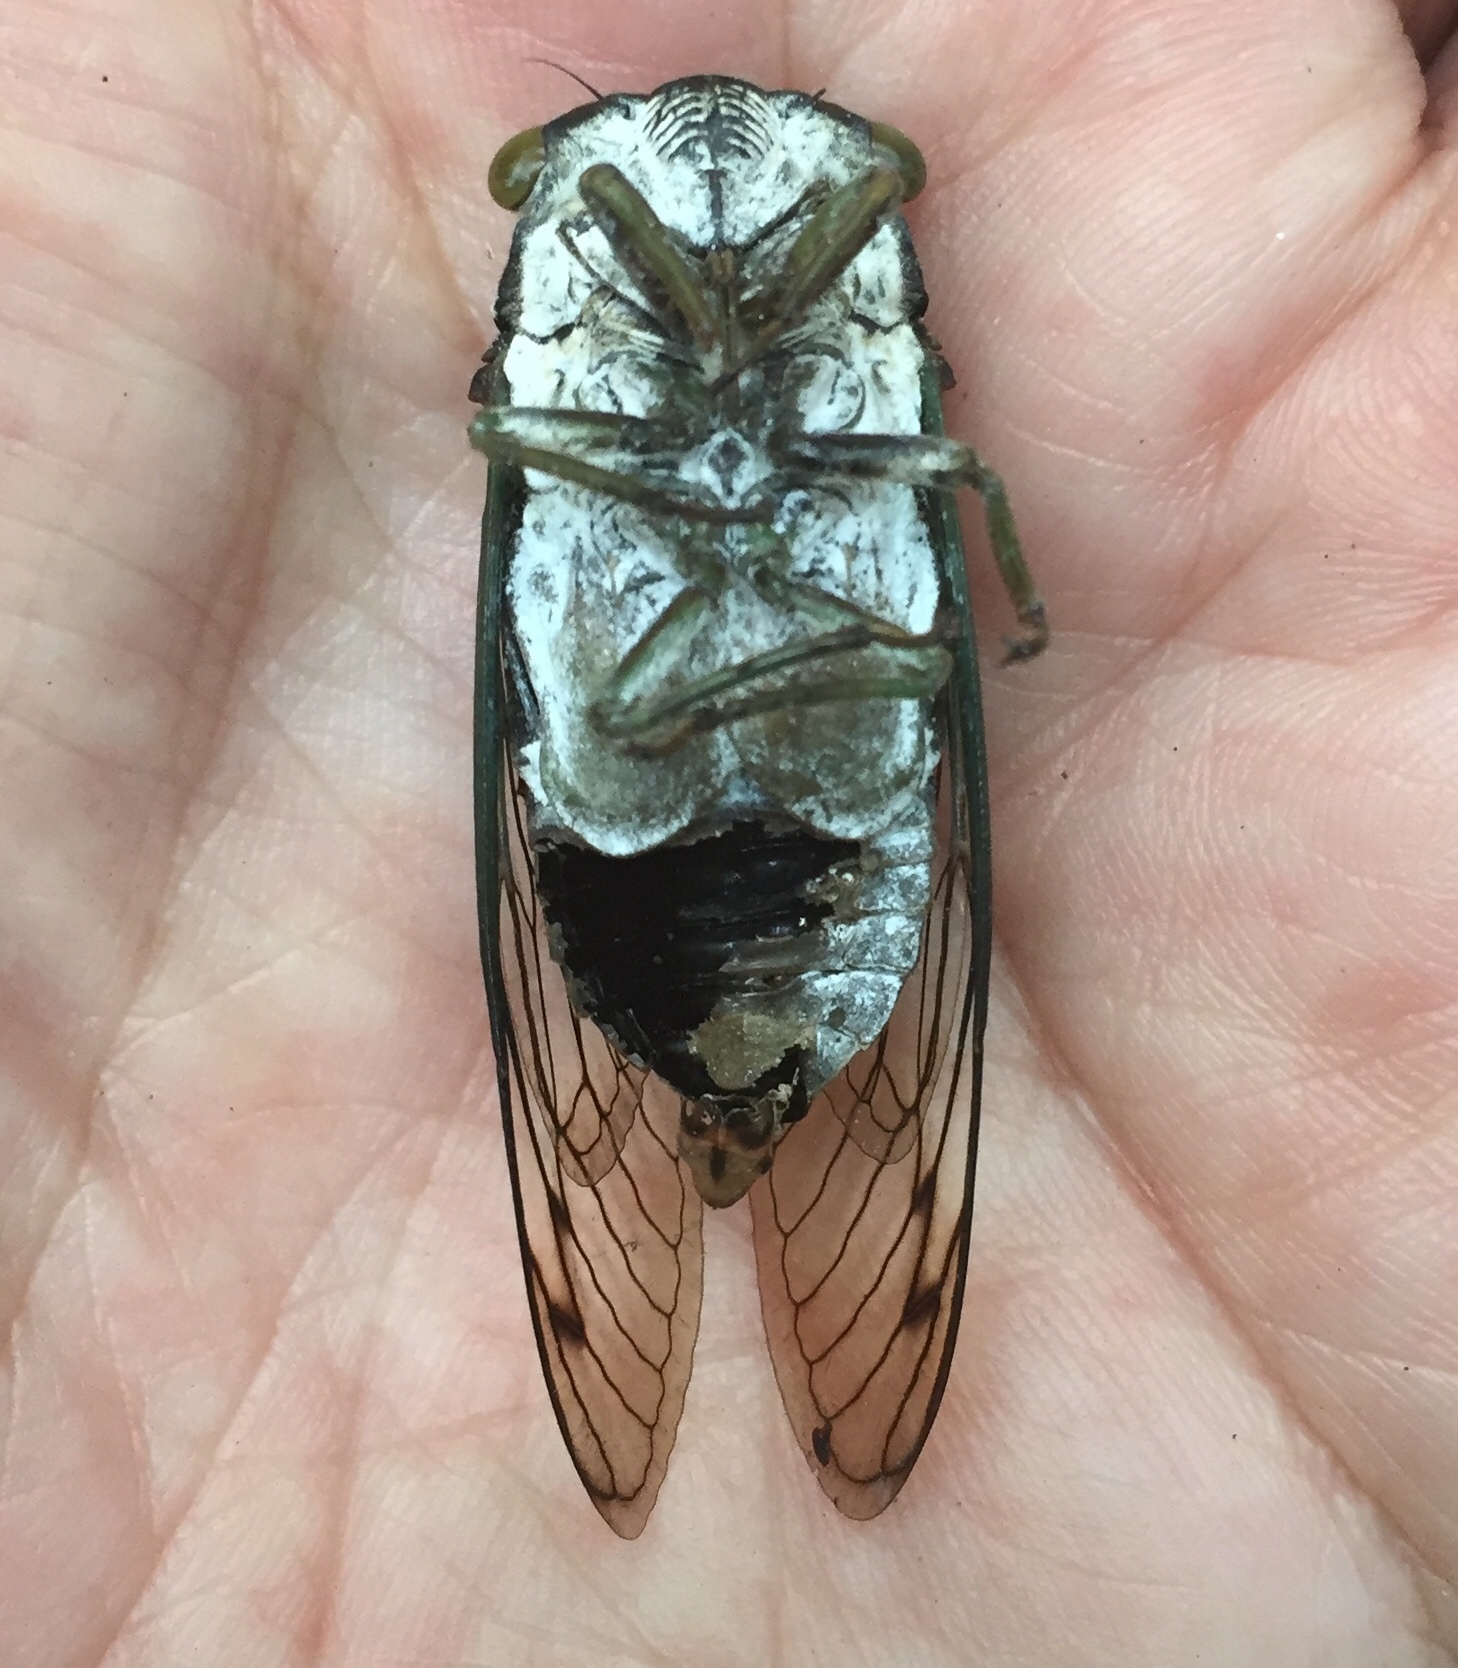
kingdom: Animalia
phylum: Arthropoda
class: Insecta
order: Hemiptera
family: Cicadidae
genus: Neotibicen
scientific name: Neotibicen tibicen
